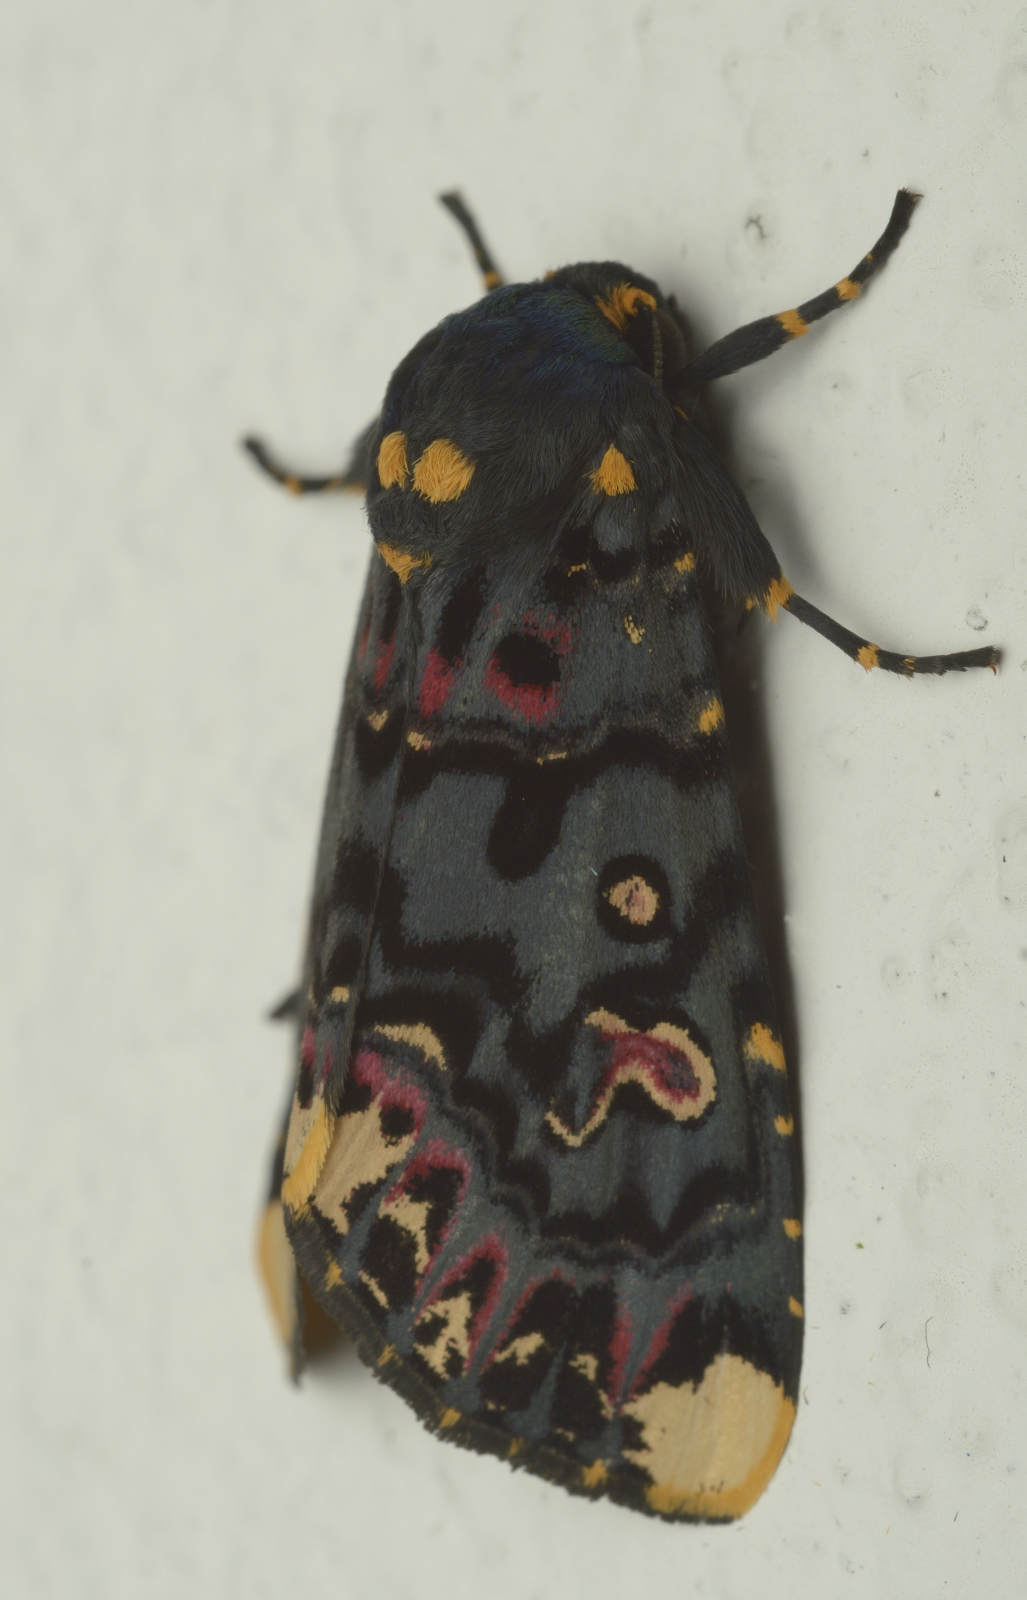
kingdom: Animalia
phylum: Arthropoda
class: Insecta
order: Lepidoptera
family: Noctuidae
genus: Polytela
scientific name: Polytela gloriosae
